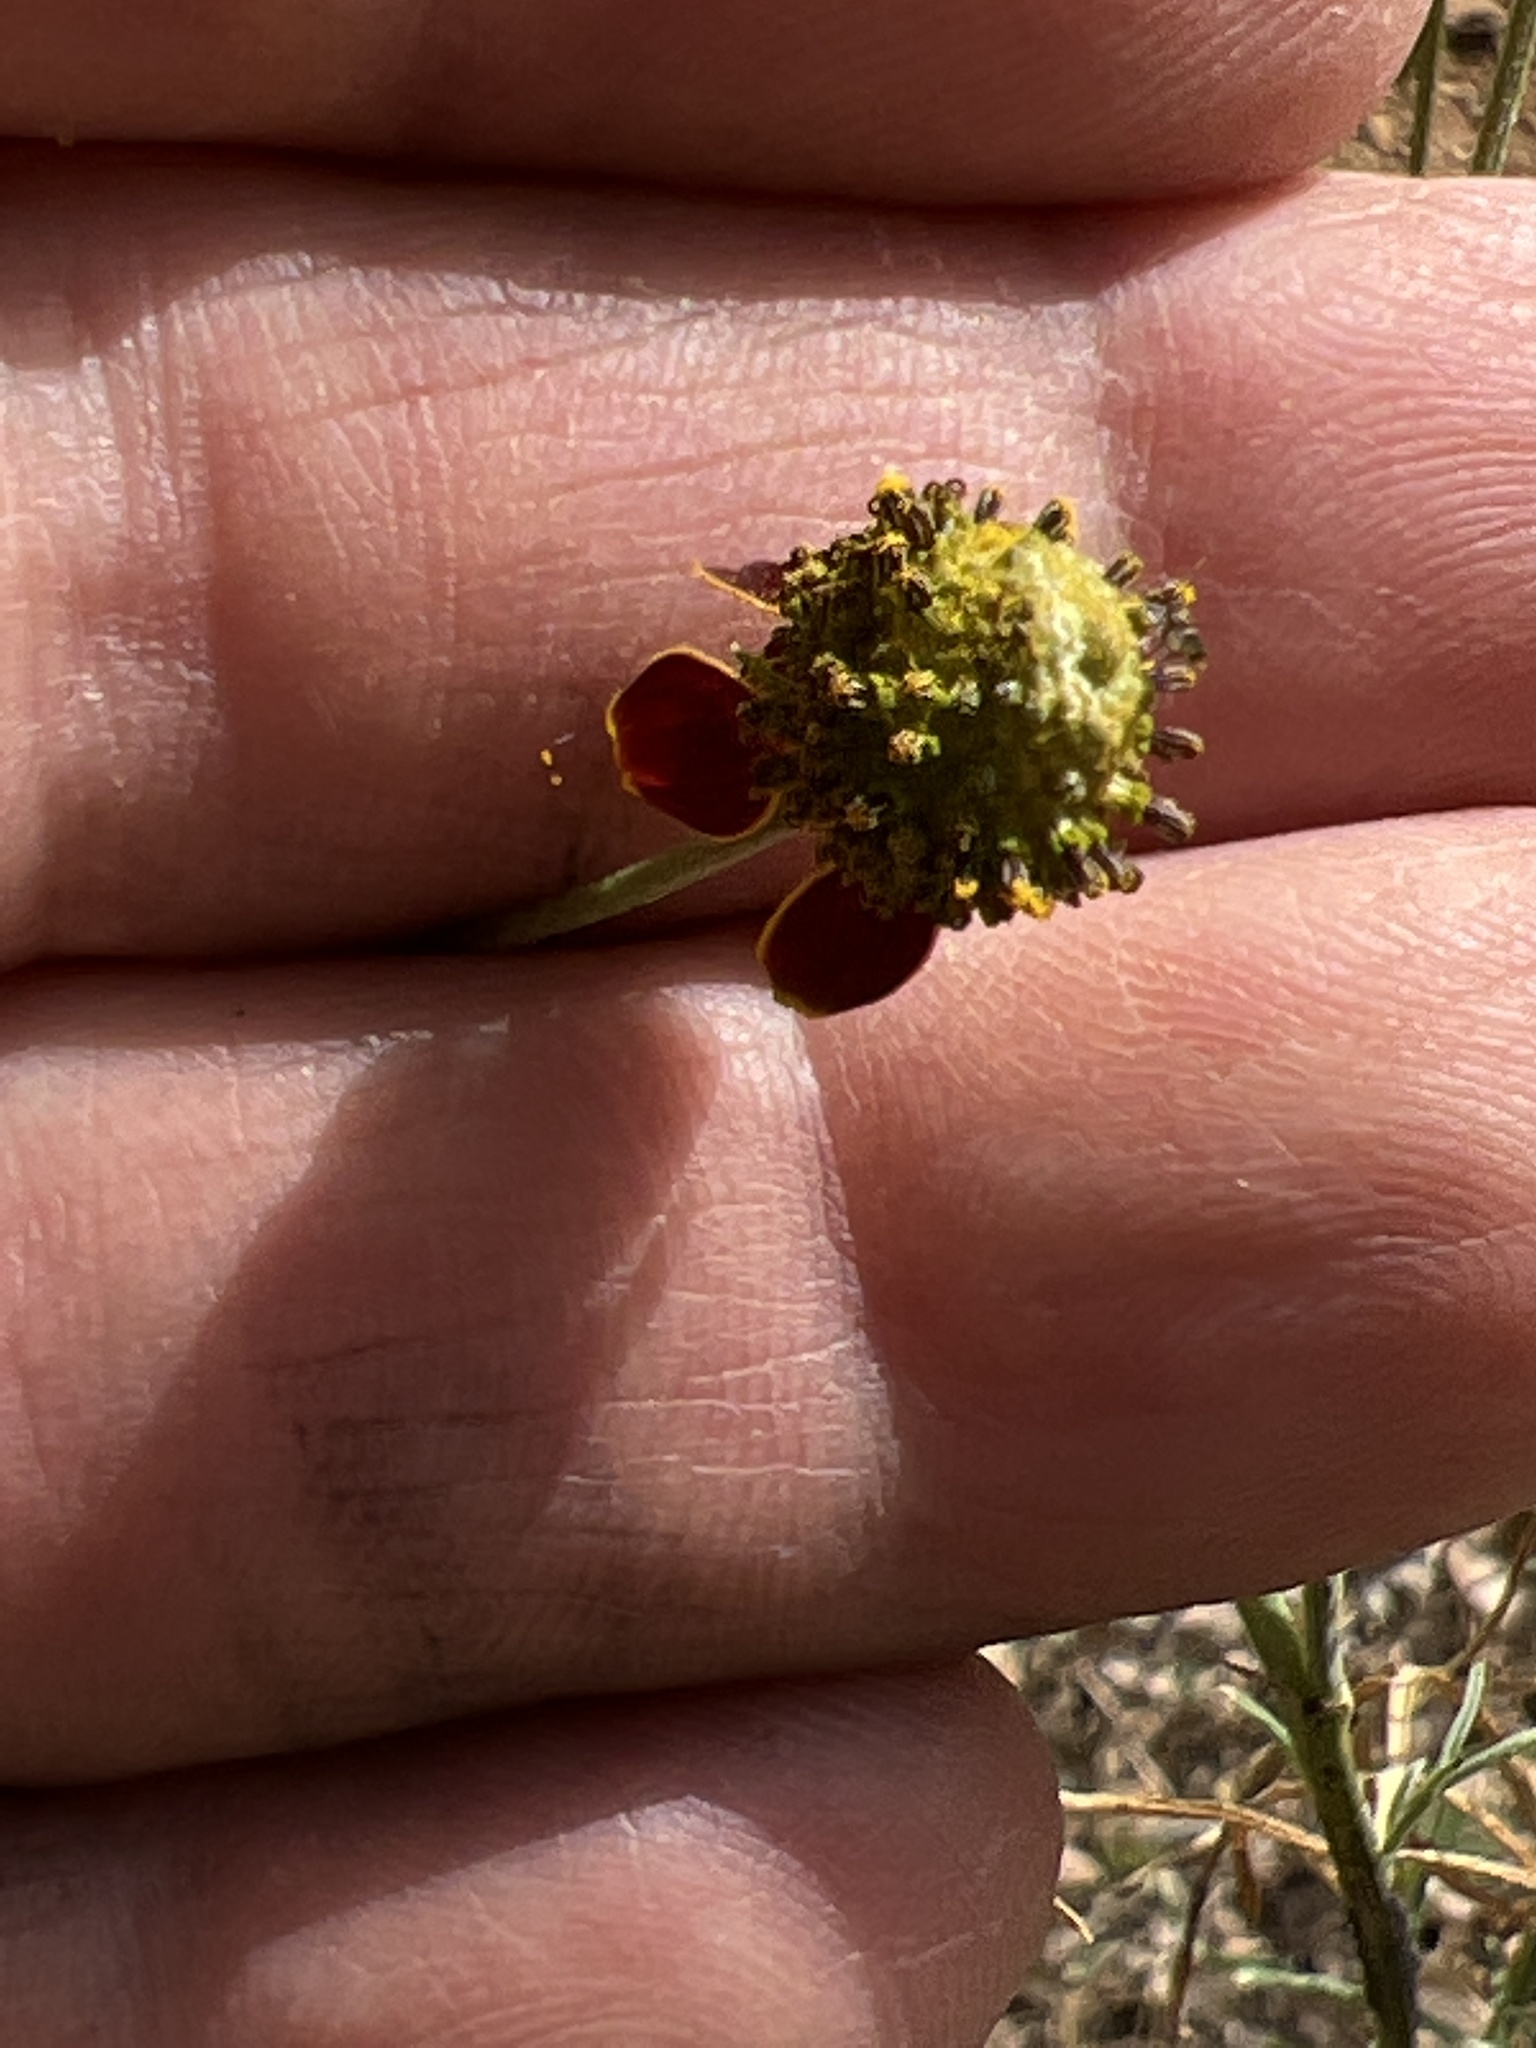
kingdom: Plantae
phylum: Tracheophyta
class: Magnoliopsida
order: Asterales
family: Asteraceae
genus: Ratibida
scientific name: Ratibida columnifera
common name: Prairie coneflower
